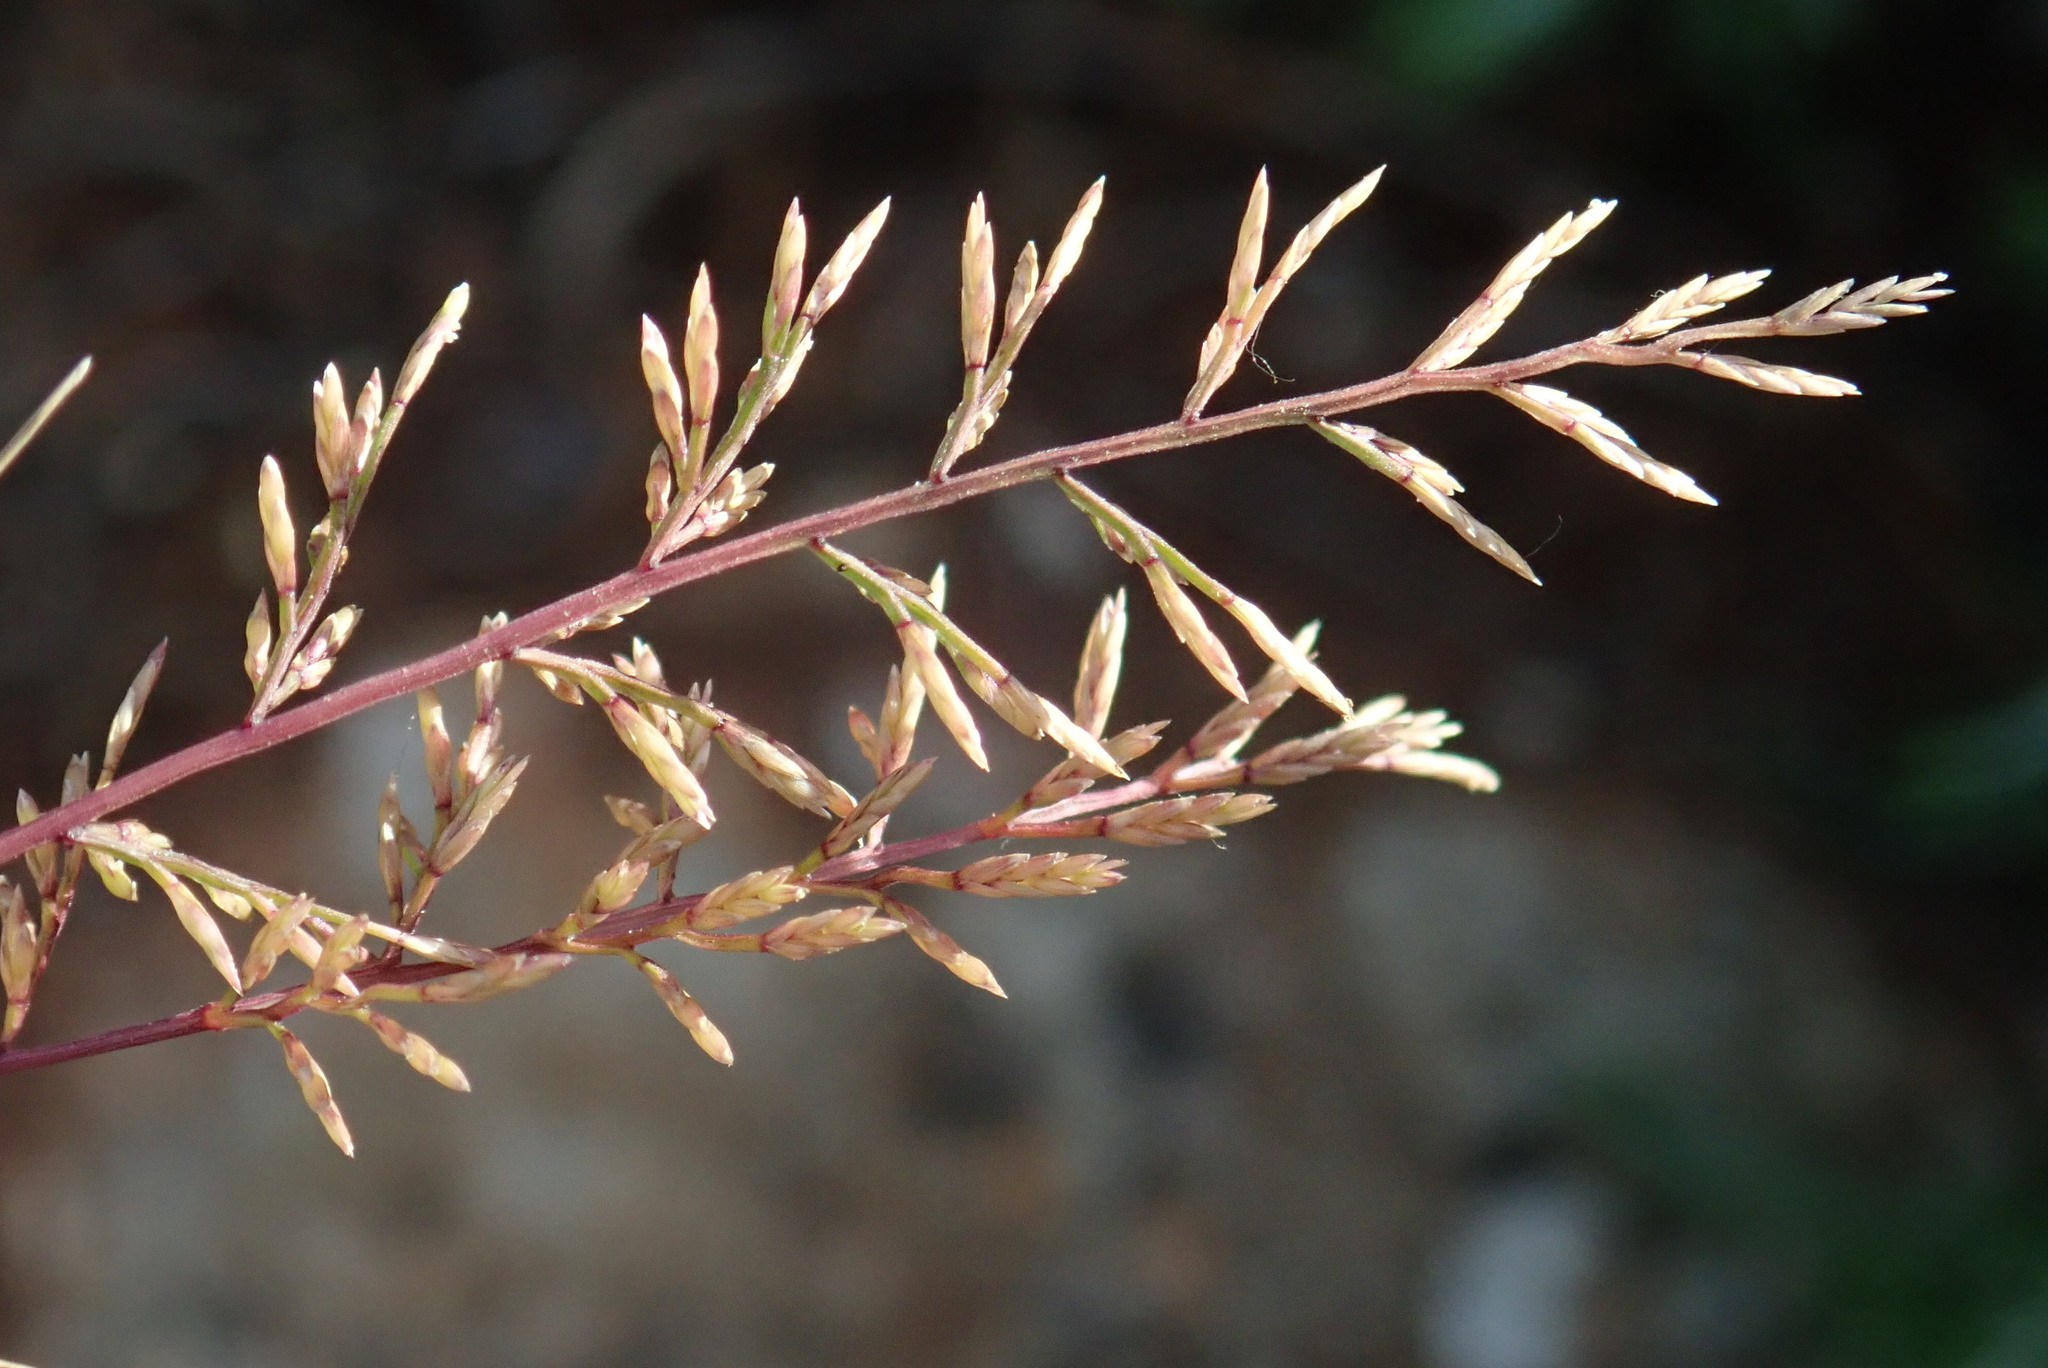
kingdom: Plantae
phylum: Tracheophyta
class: Liliopsida
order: Poales
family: Poaceae
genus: Catapodium
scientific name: Catapodium rigidum
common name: Fern-grass
